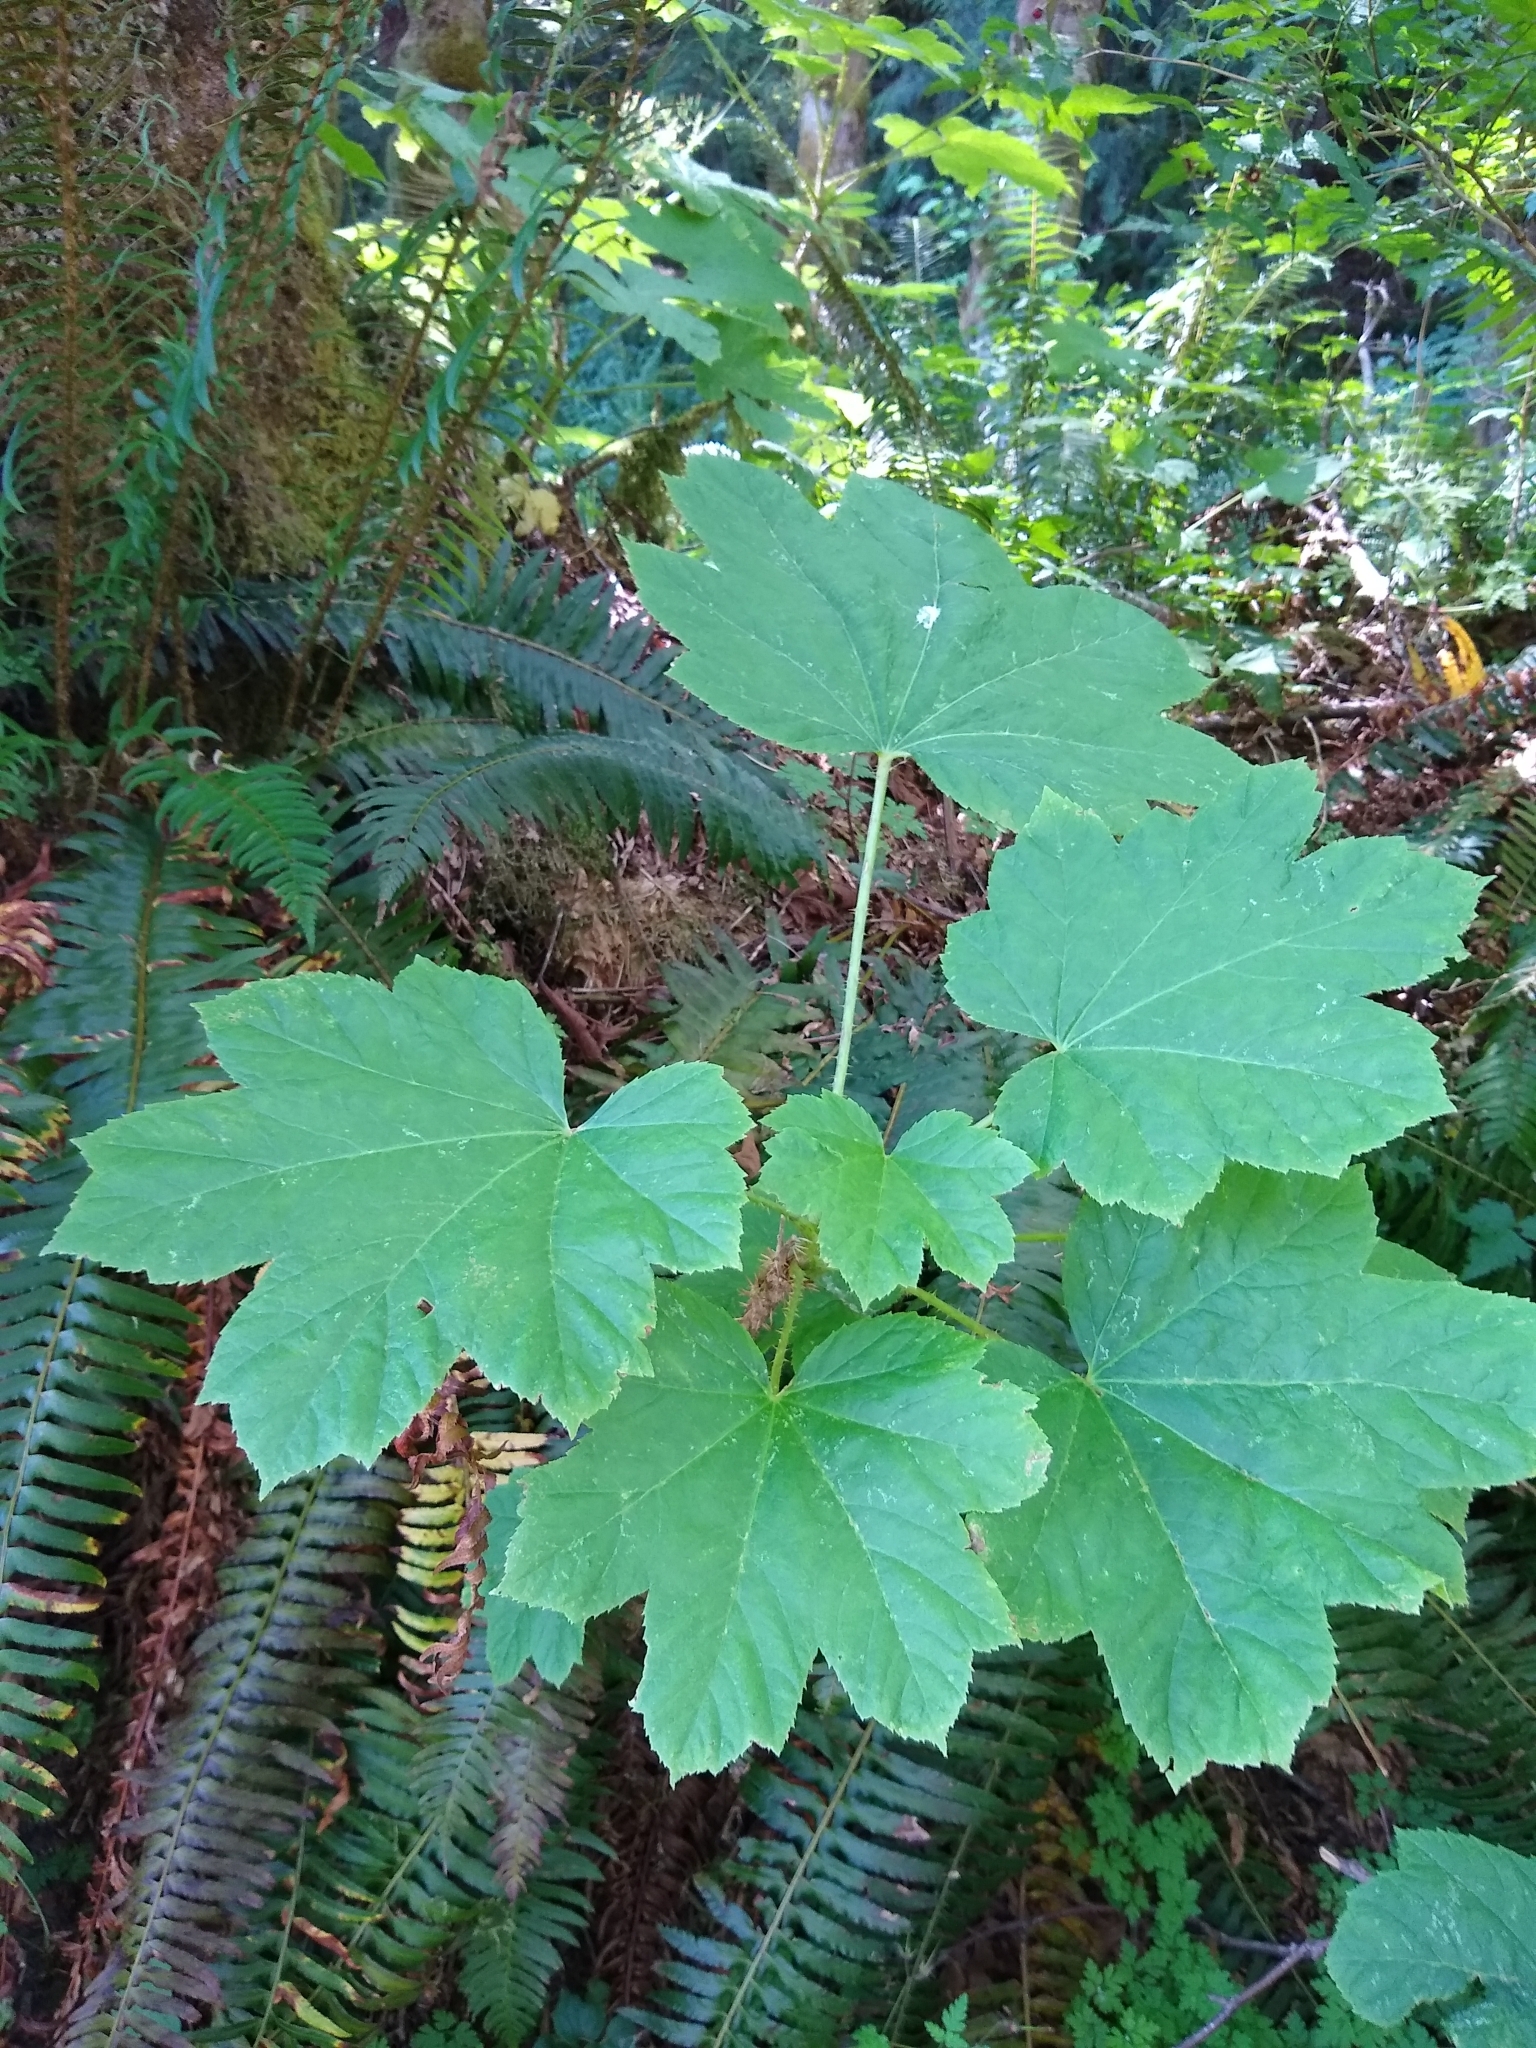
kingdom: Plantae
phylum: Tracheophyta
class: Magnoliopsida
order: Apiales
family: Araliaceae
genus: Oplopanax
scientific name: Oplopanax horridus
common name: Devil's walking-stick
